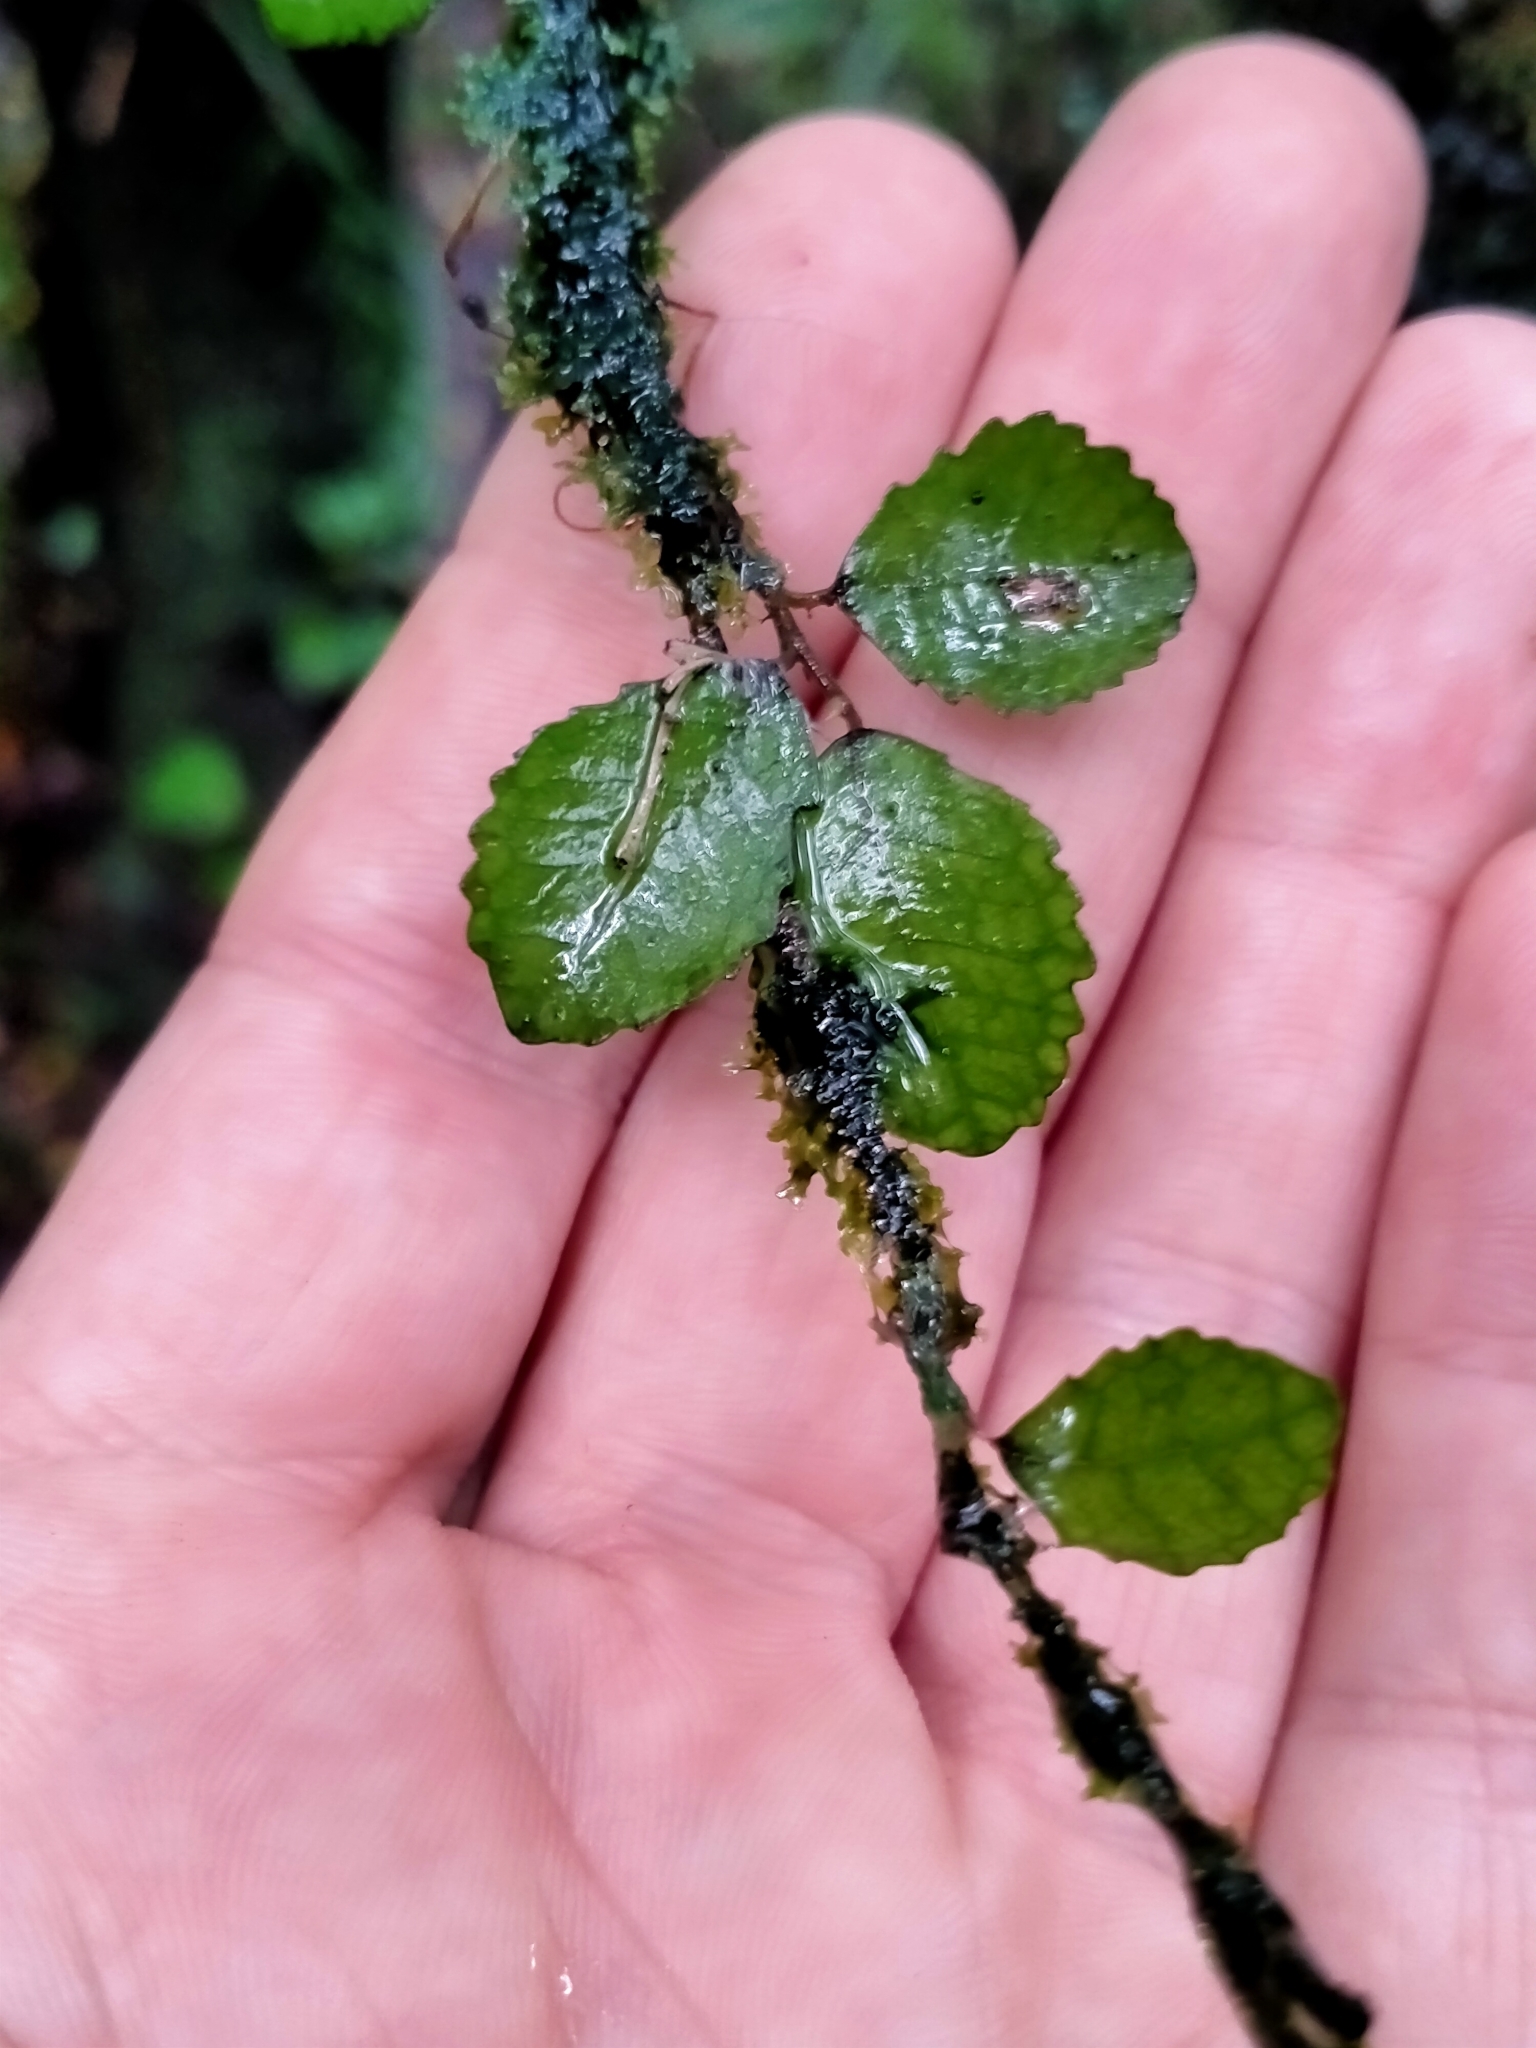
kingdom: Plantae
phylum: Tracheophyta
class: Magnoliopsida
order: Rosales
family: Moraceae
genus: Paratrophis
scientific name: Paratrophis microphylla
